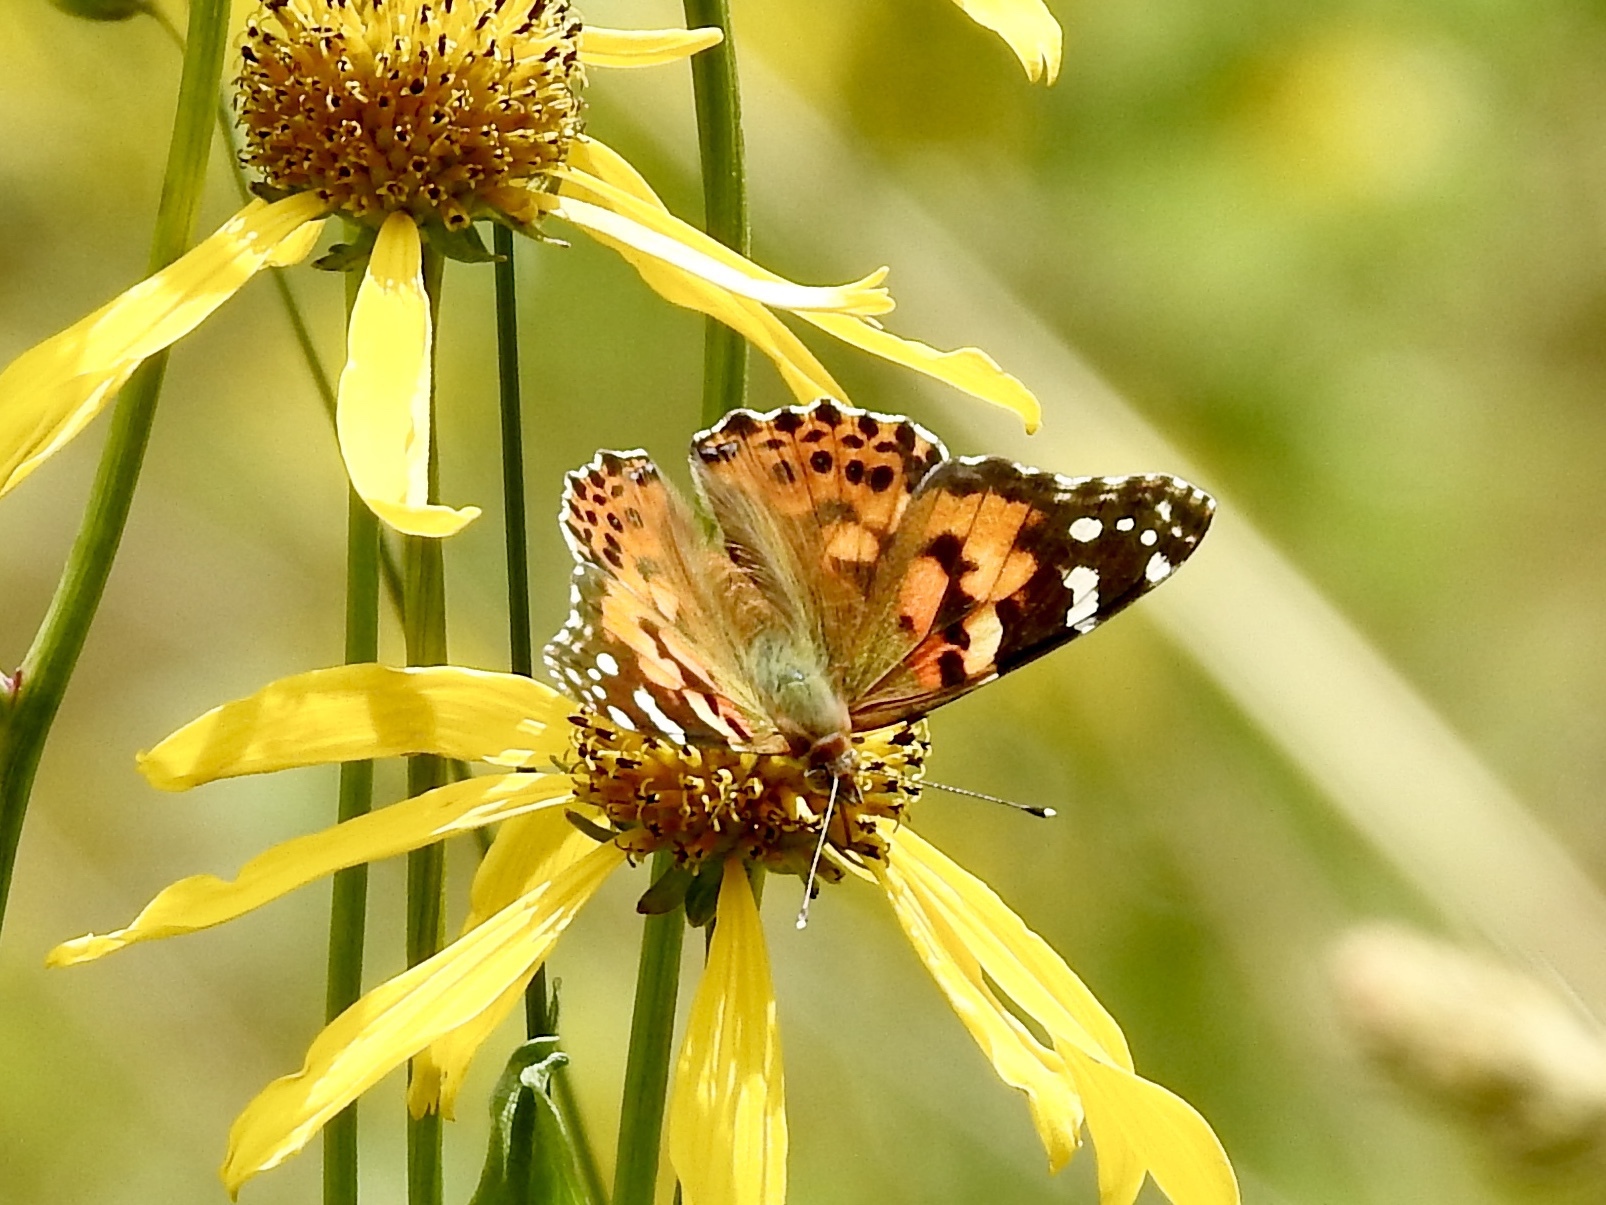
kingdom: Animalia
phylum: Arthropoda
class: Insecta
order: Lepidoptera
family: Nymphalidae
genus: Vanessa
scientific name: Vanessa cardui
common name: Painted lady
